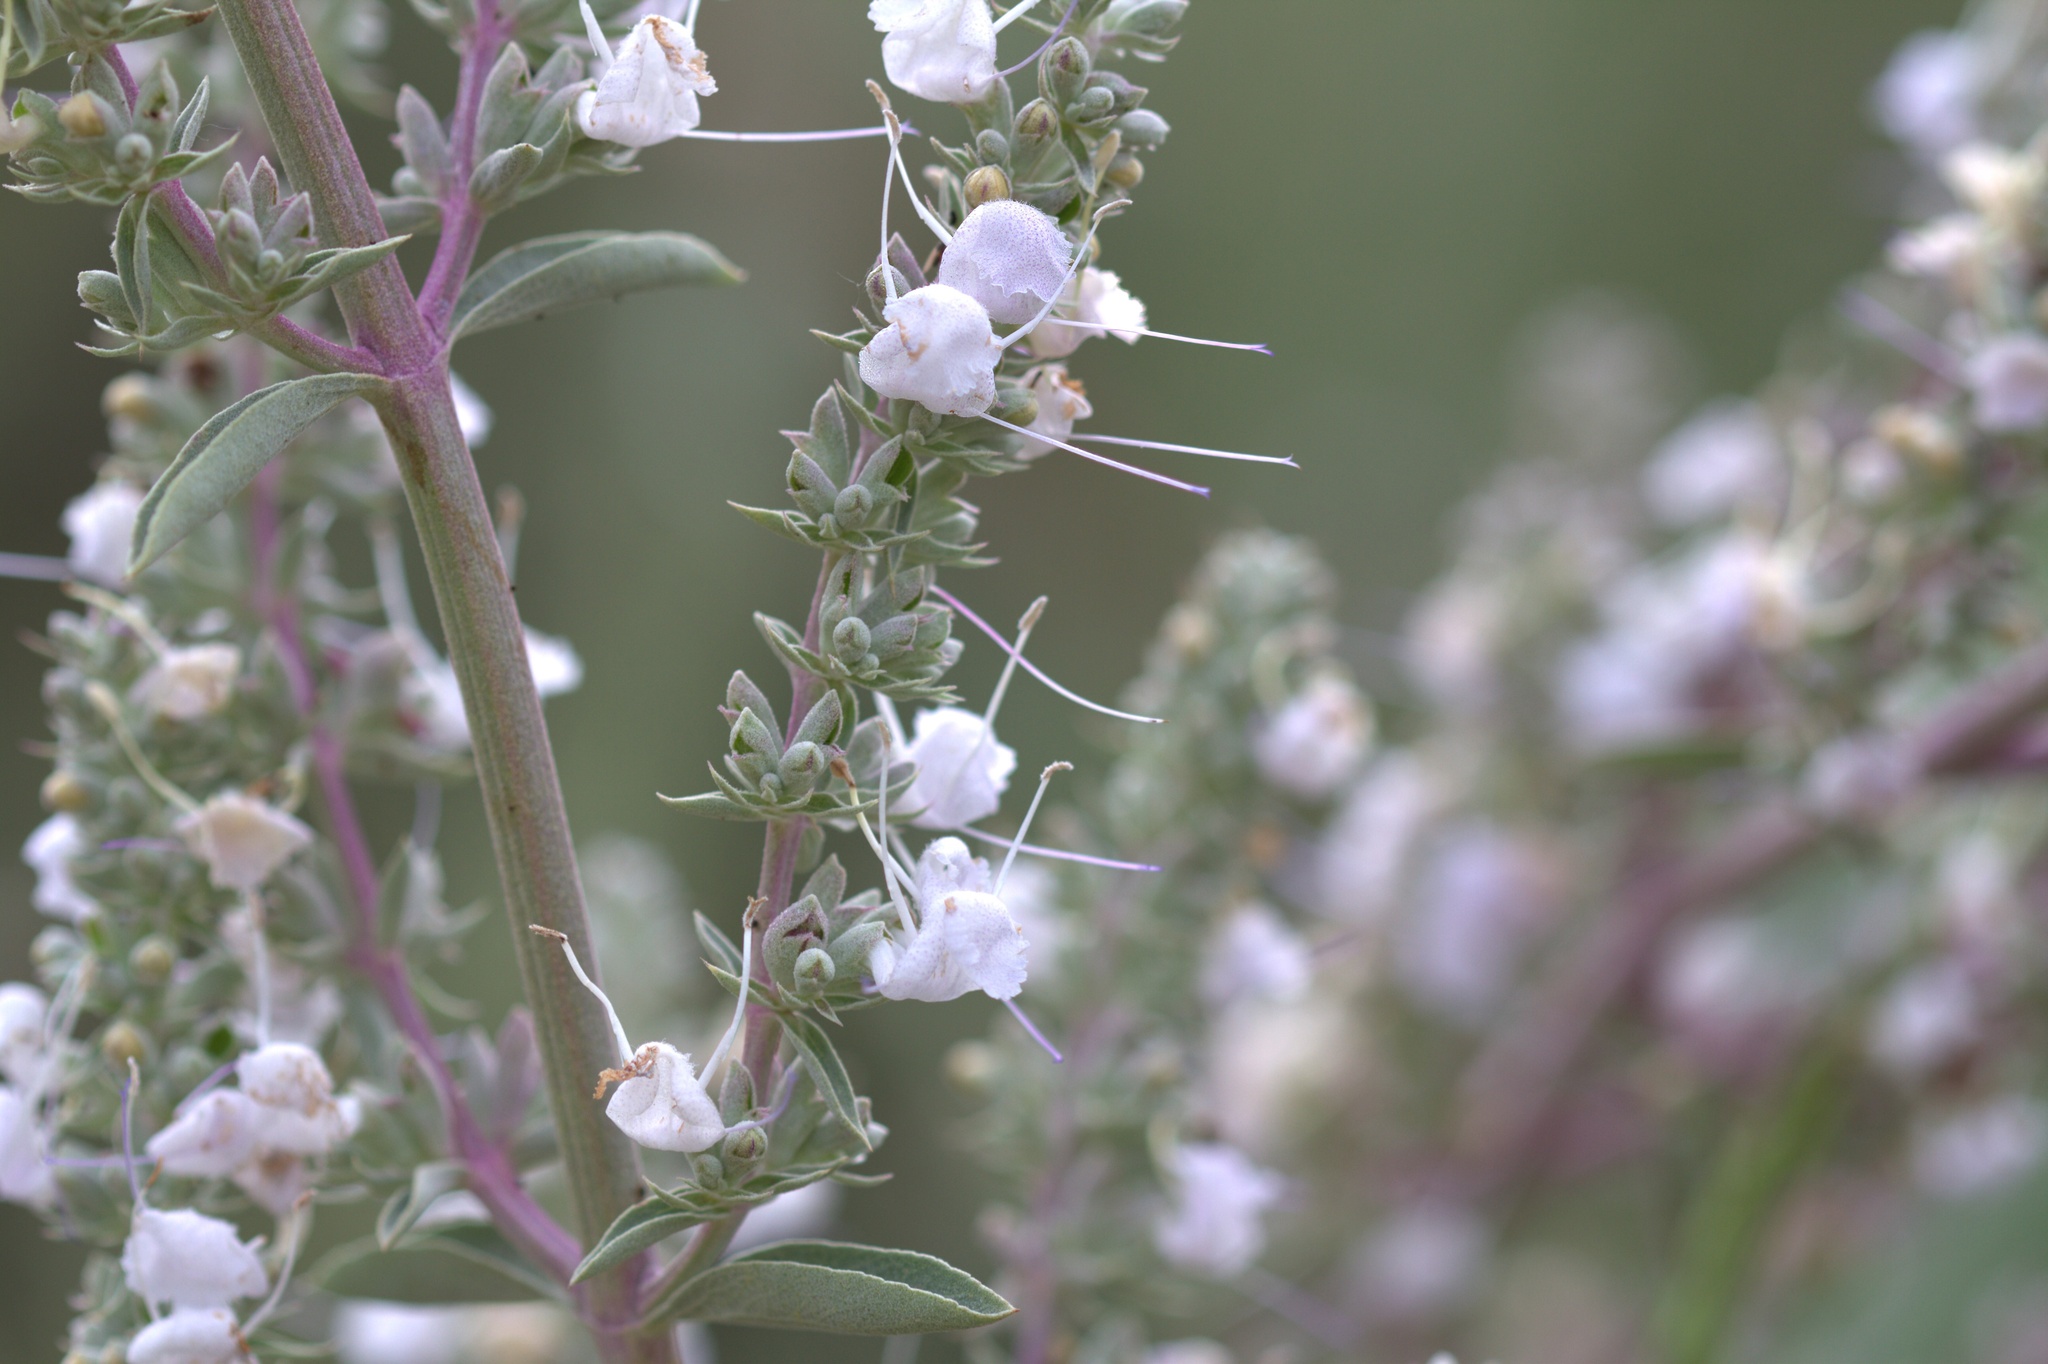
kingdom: Plantae
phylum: Tracheophyta
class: Magnoliopsida
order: Lamiales
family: Lamiaceae
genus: Salvia
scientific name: Salvia apiana
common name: White sage
